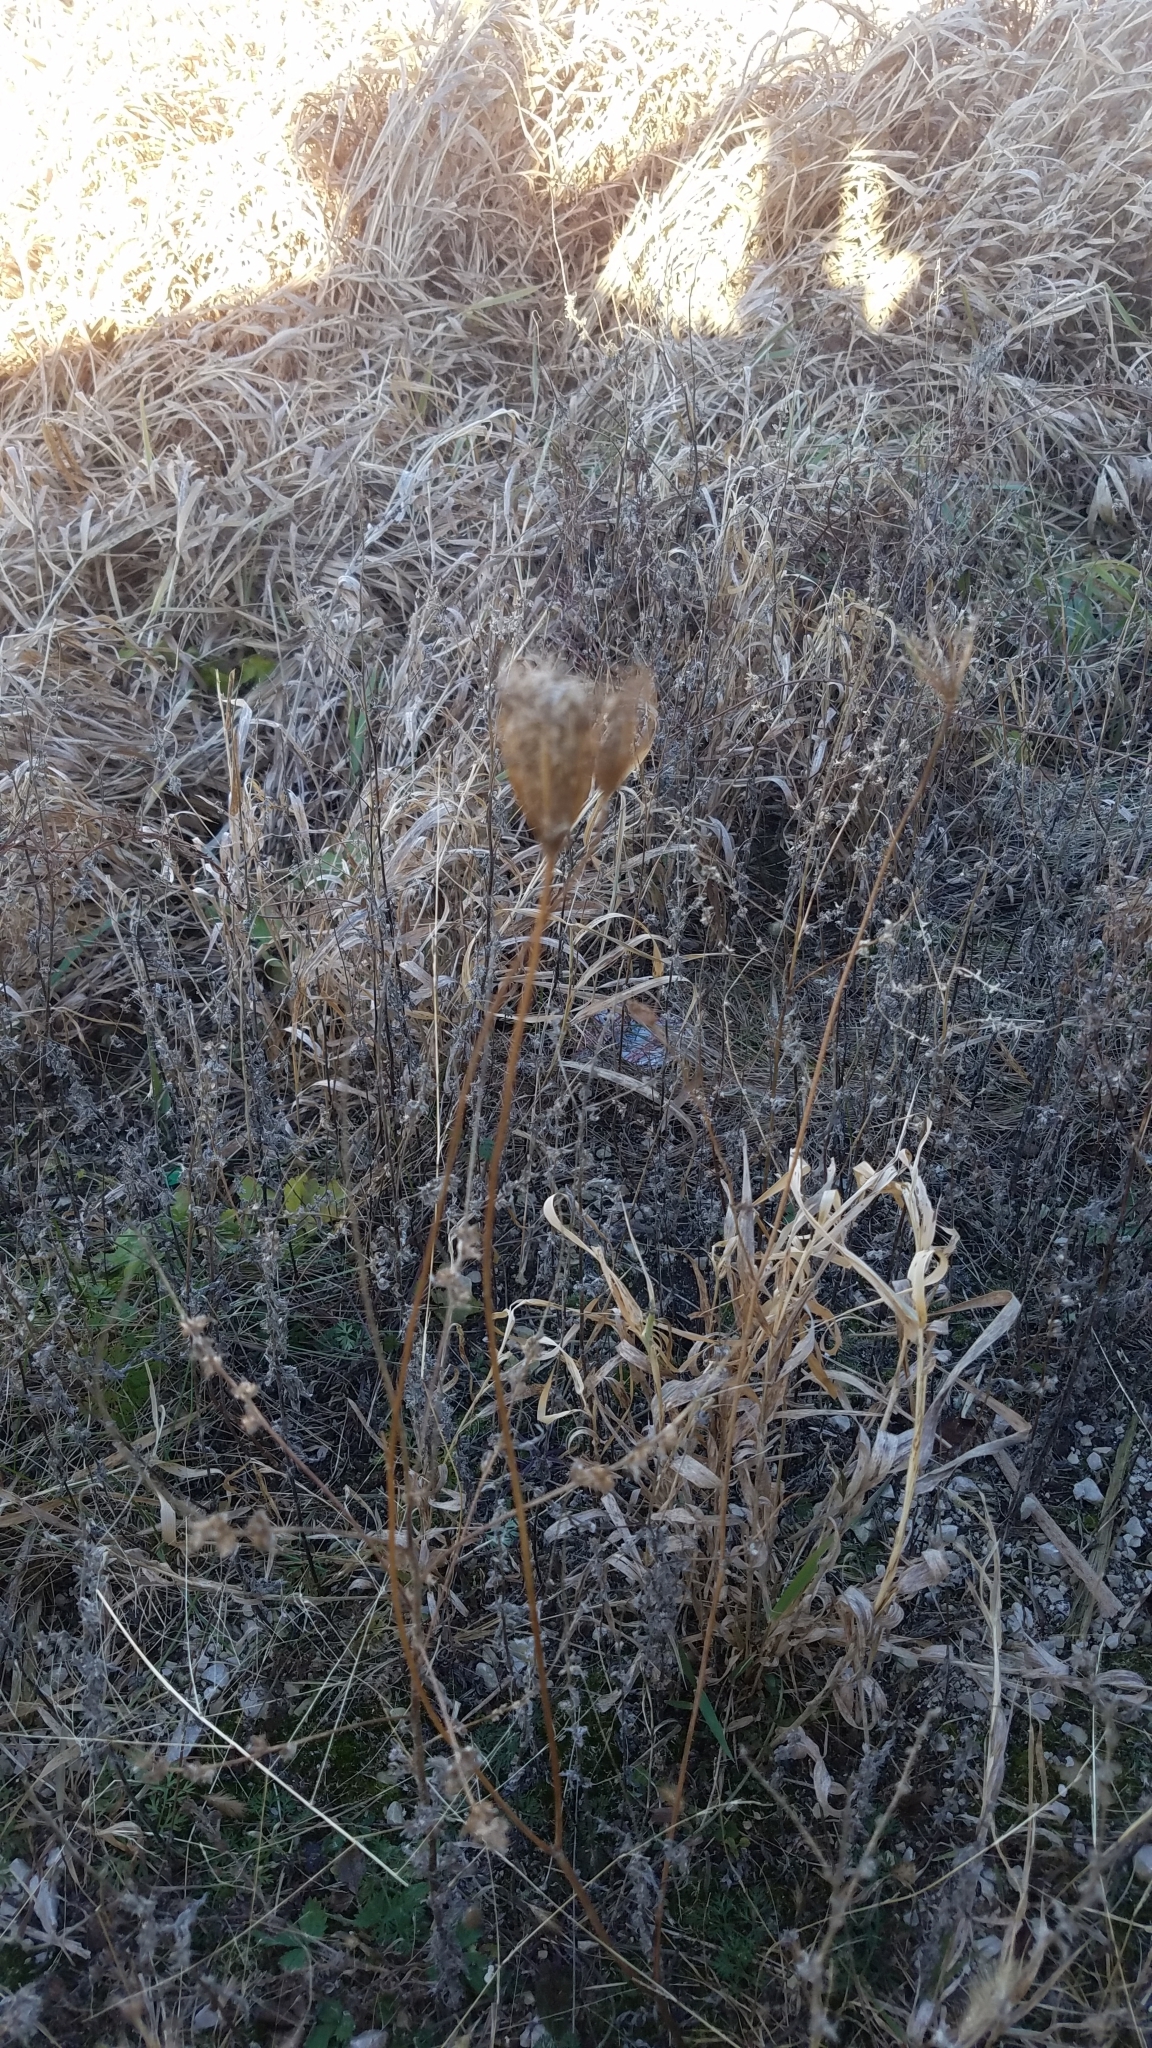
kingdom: Plantae
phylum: Tracheophyta
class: Magnoliopsida
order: Apiales
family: Apiaceae
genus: Daucus
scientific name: Daucus carota
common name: Wild carrot
